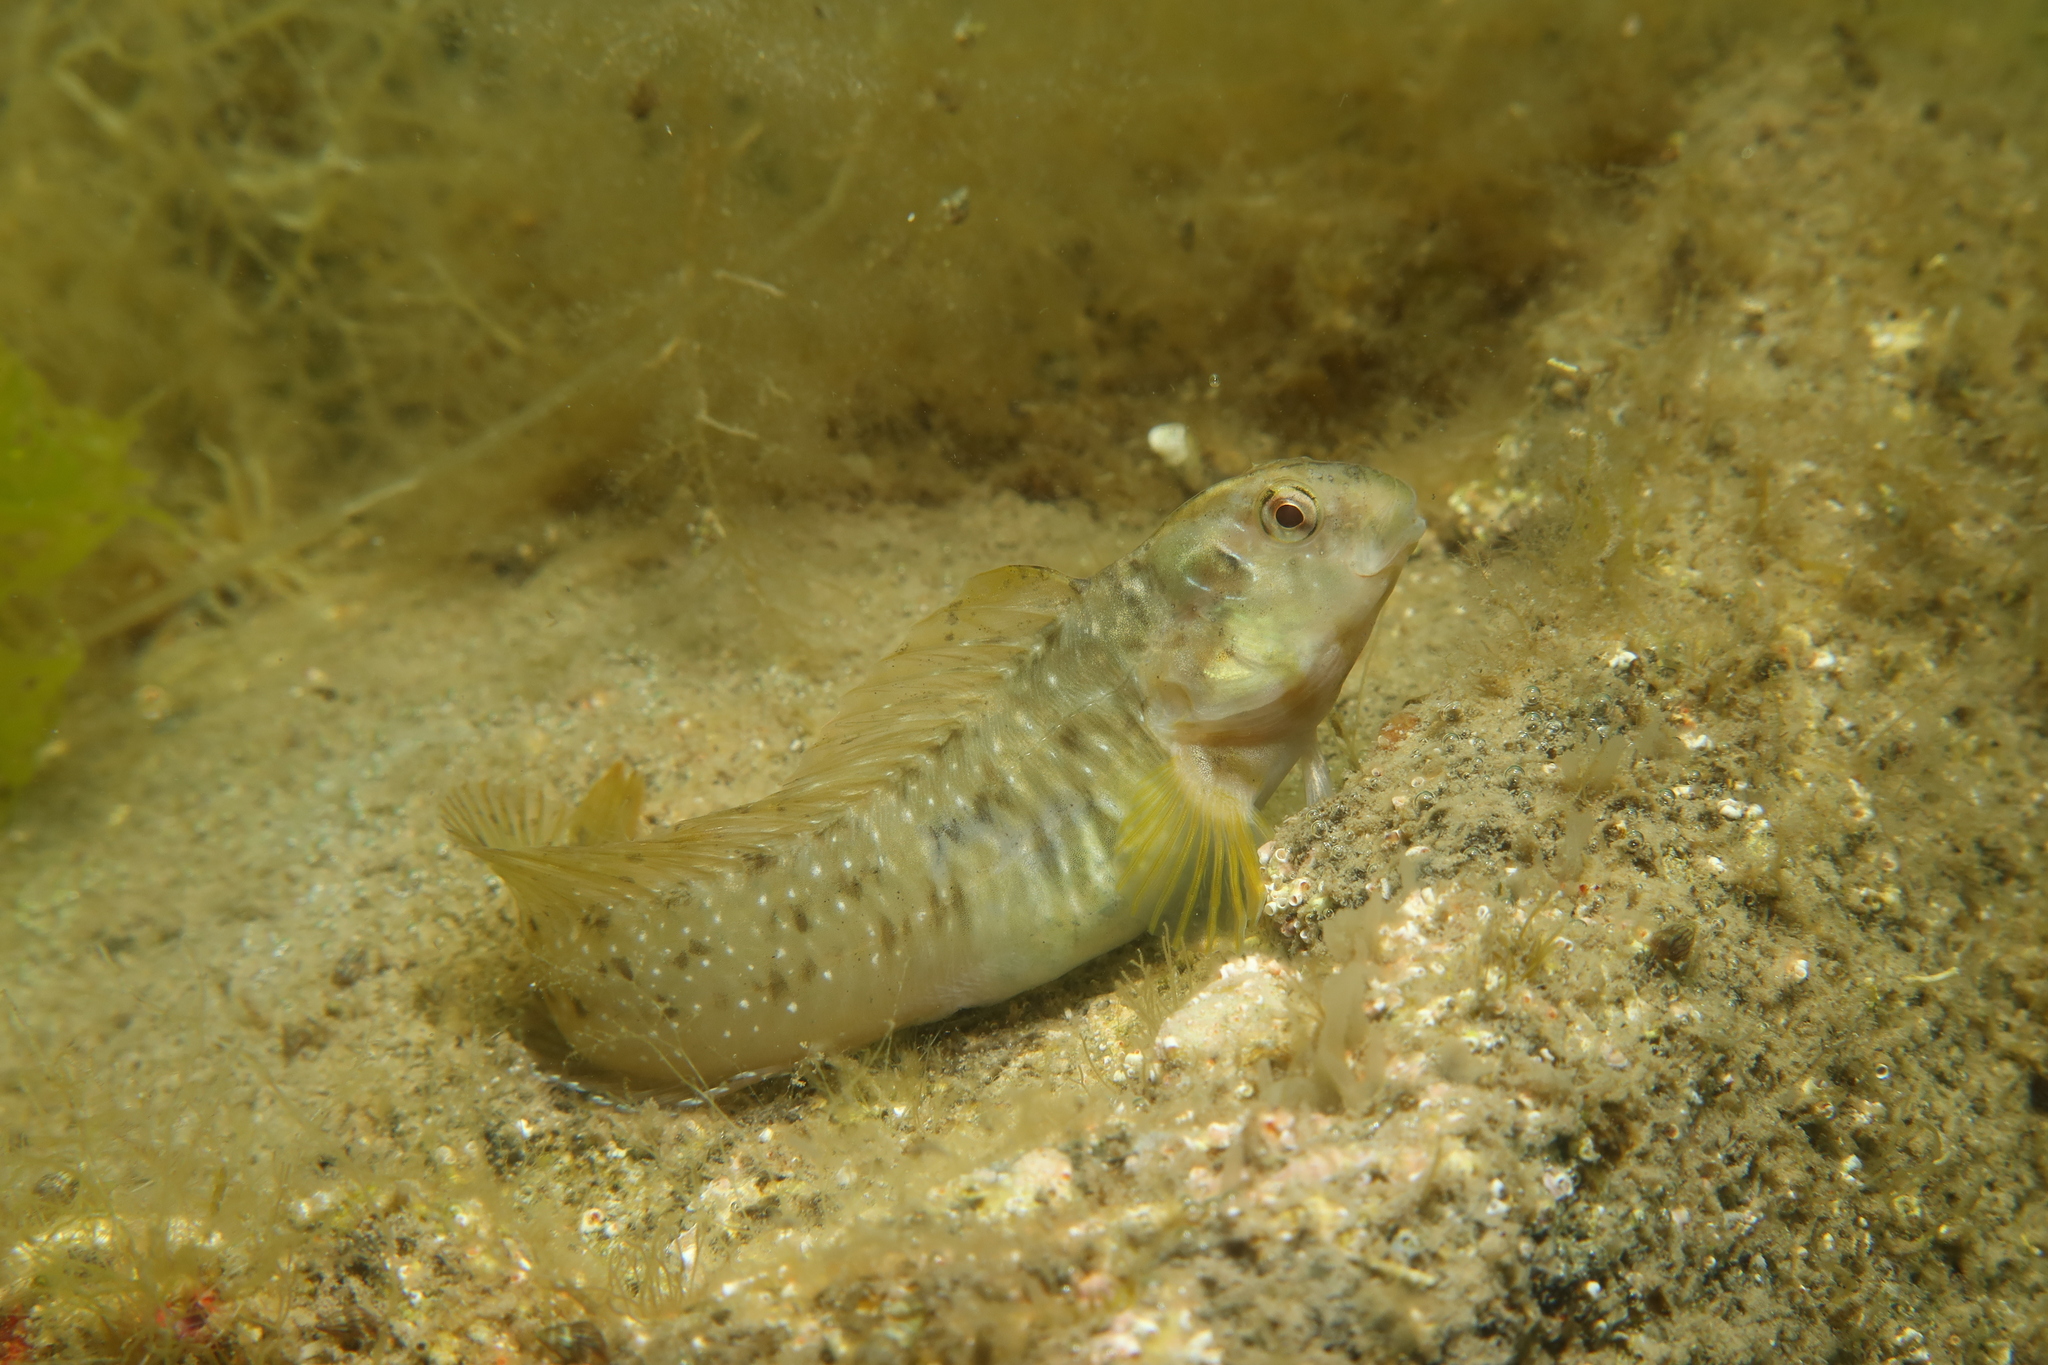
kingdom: Animalia
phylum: Chordata
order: Perciformes
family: Blenniidae
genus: Salaria
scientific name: Salaria pavo
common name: Peacock blenny
